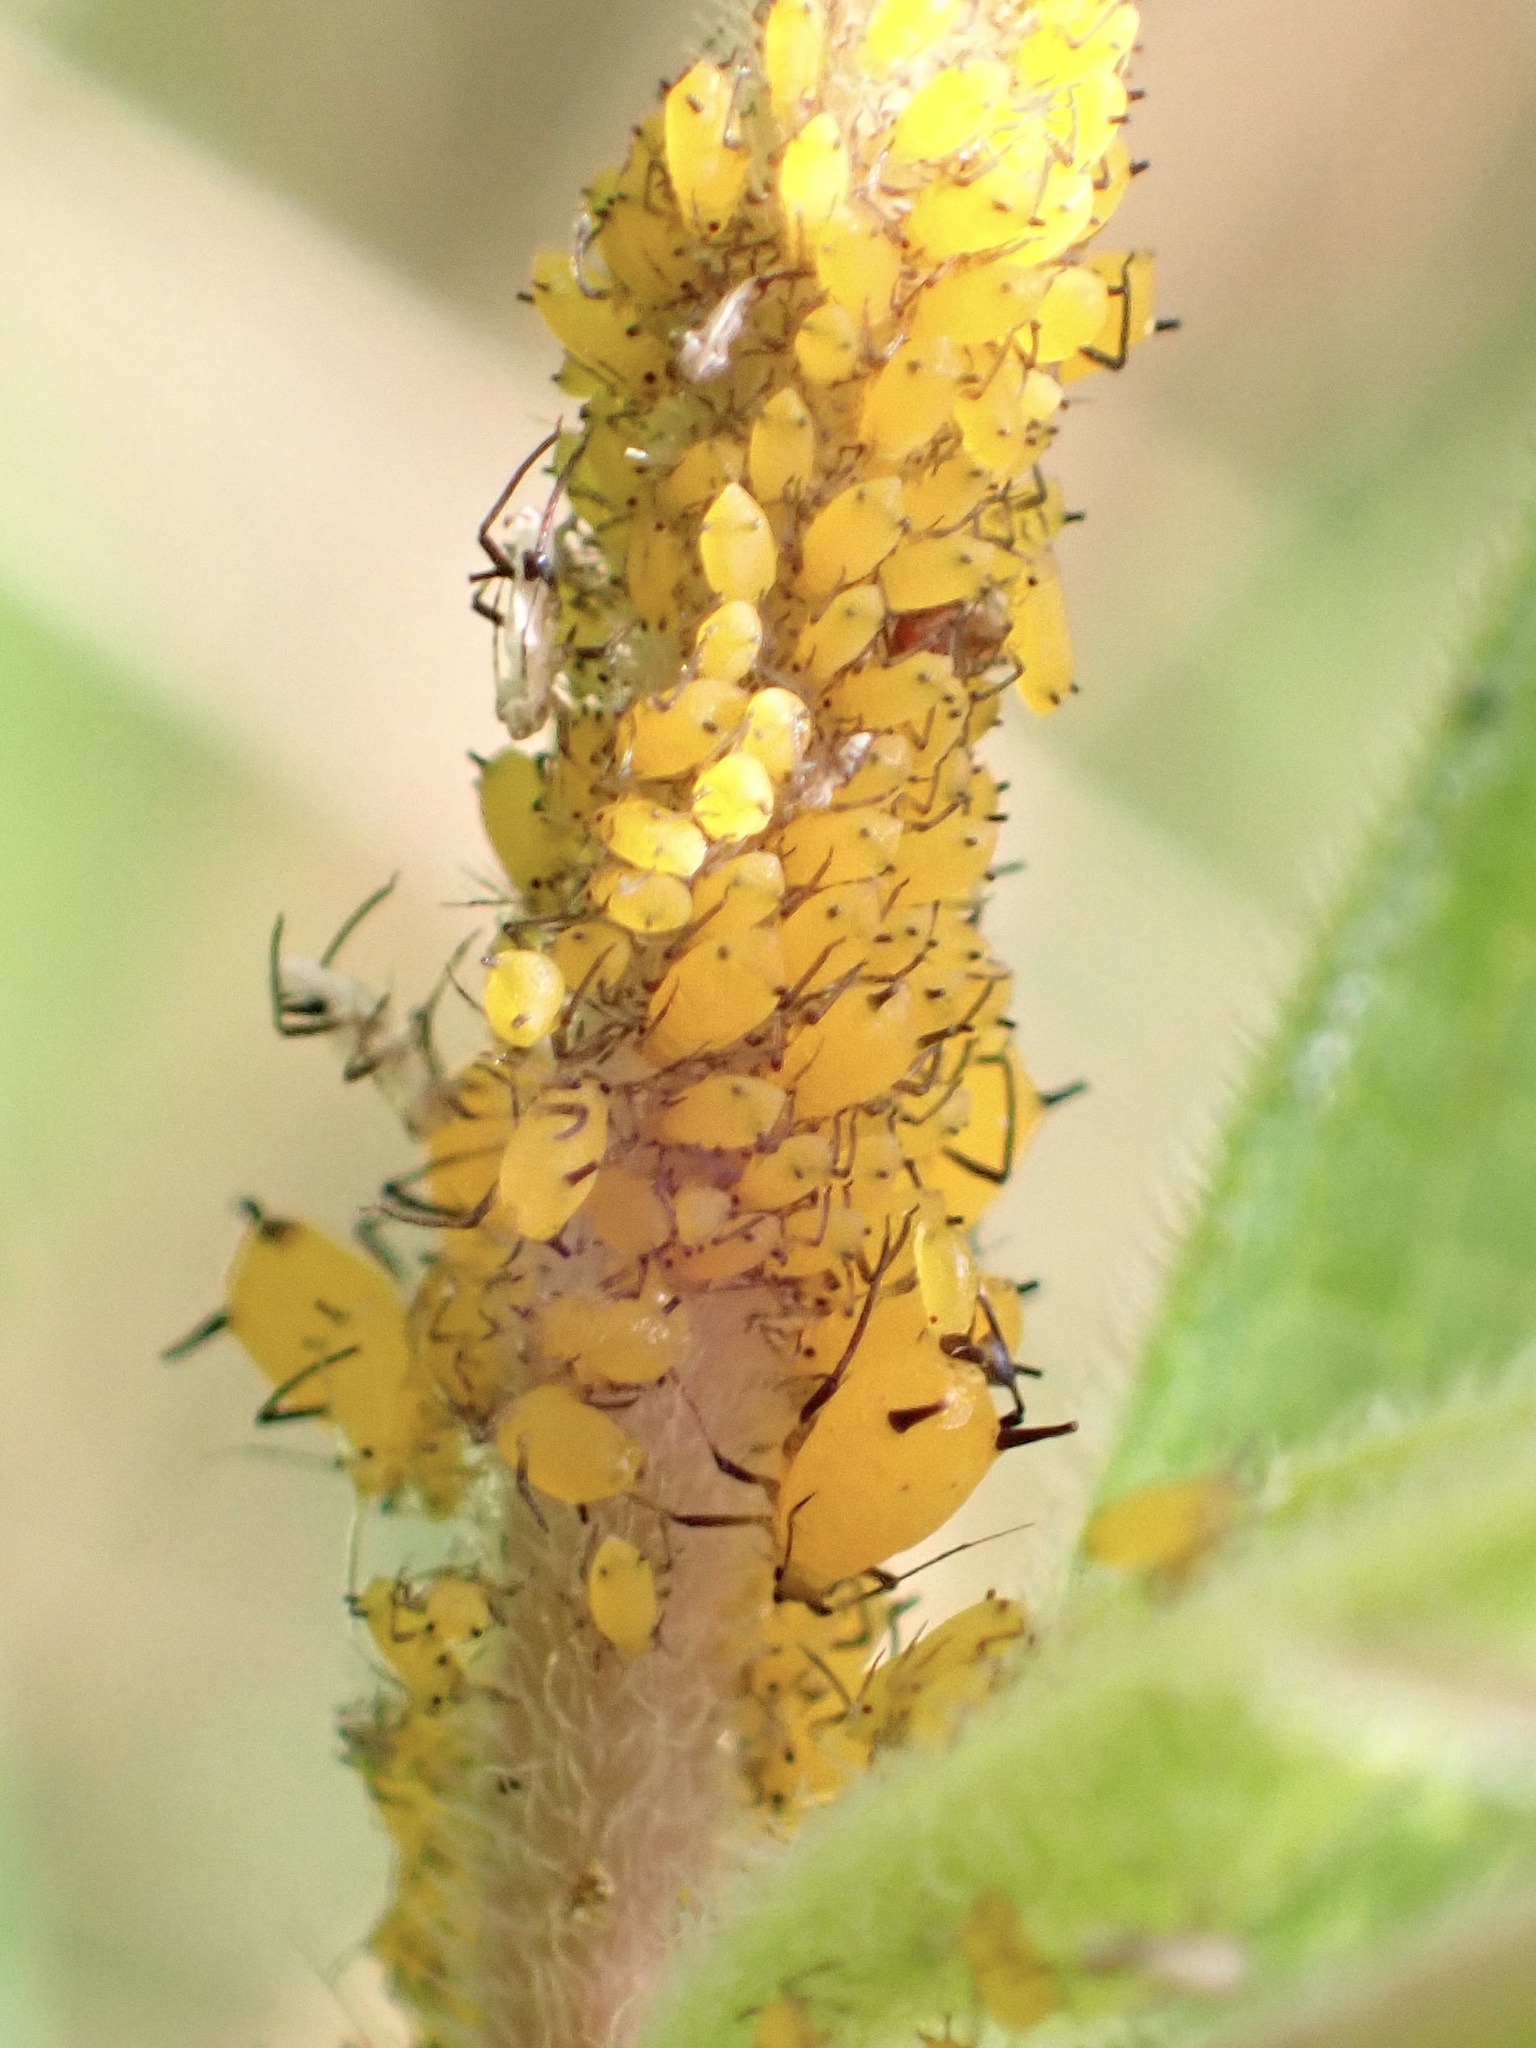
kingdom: Animalia
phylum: Arthropoda
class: Insecta
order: Hemiptera
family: Aphididae
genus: Aphis
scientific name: Aphis nerii
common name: Oleander aphid
